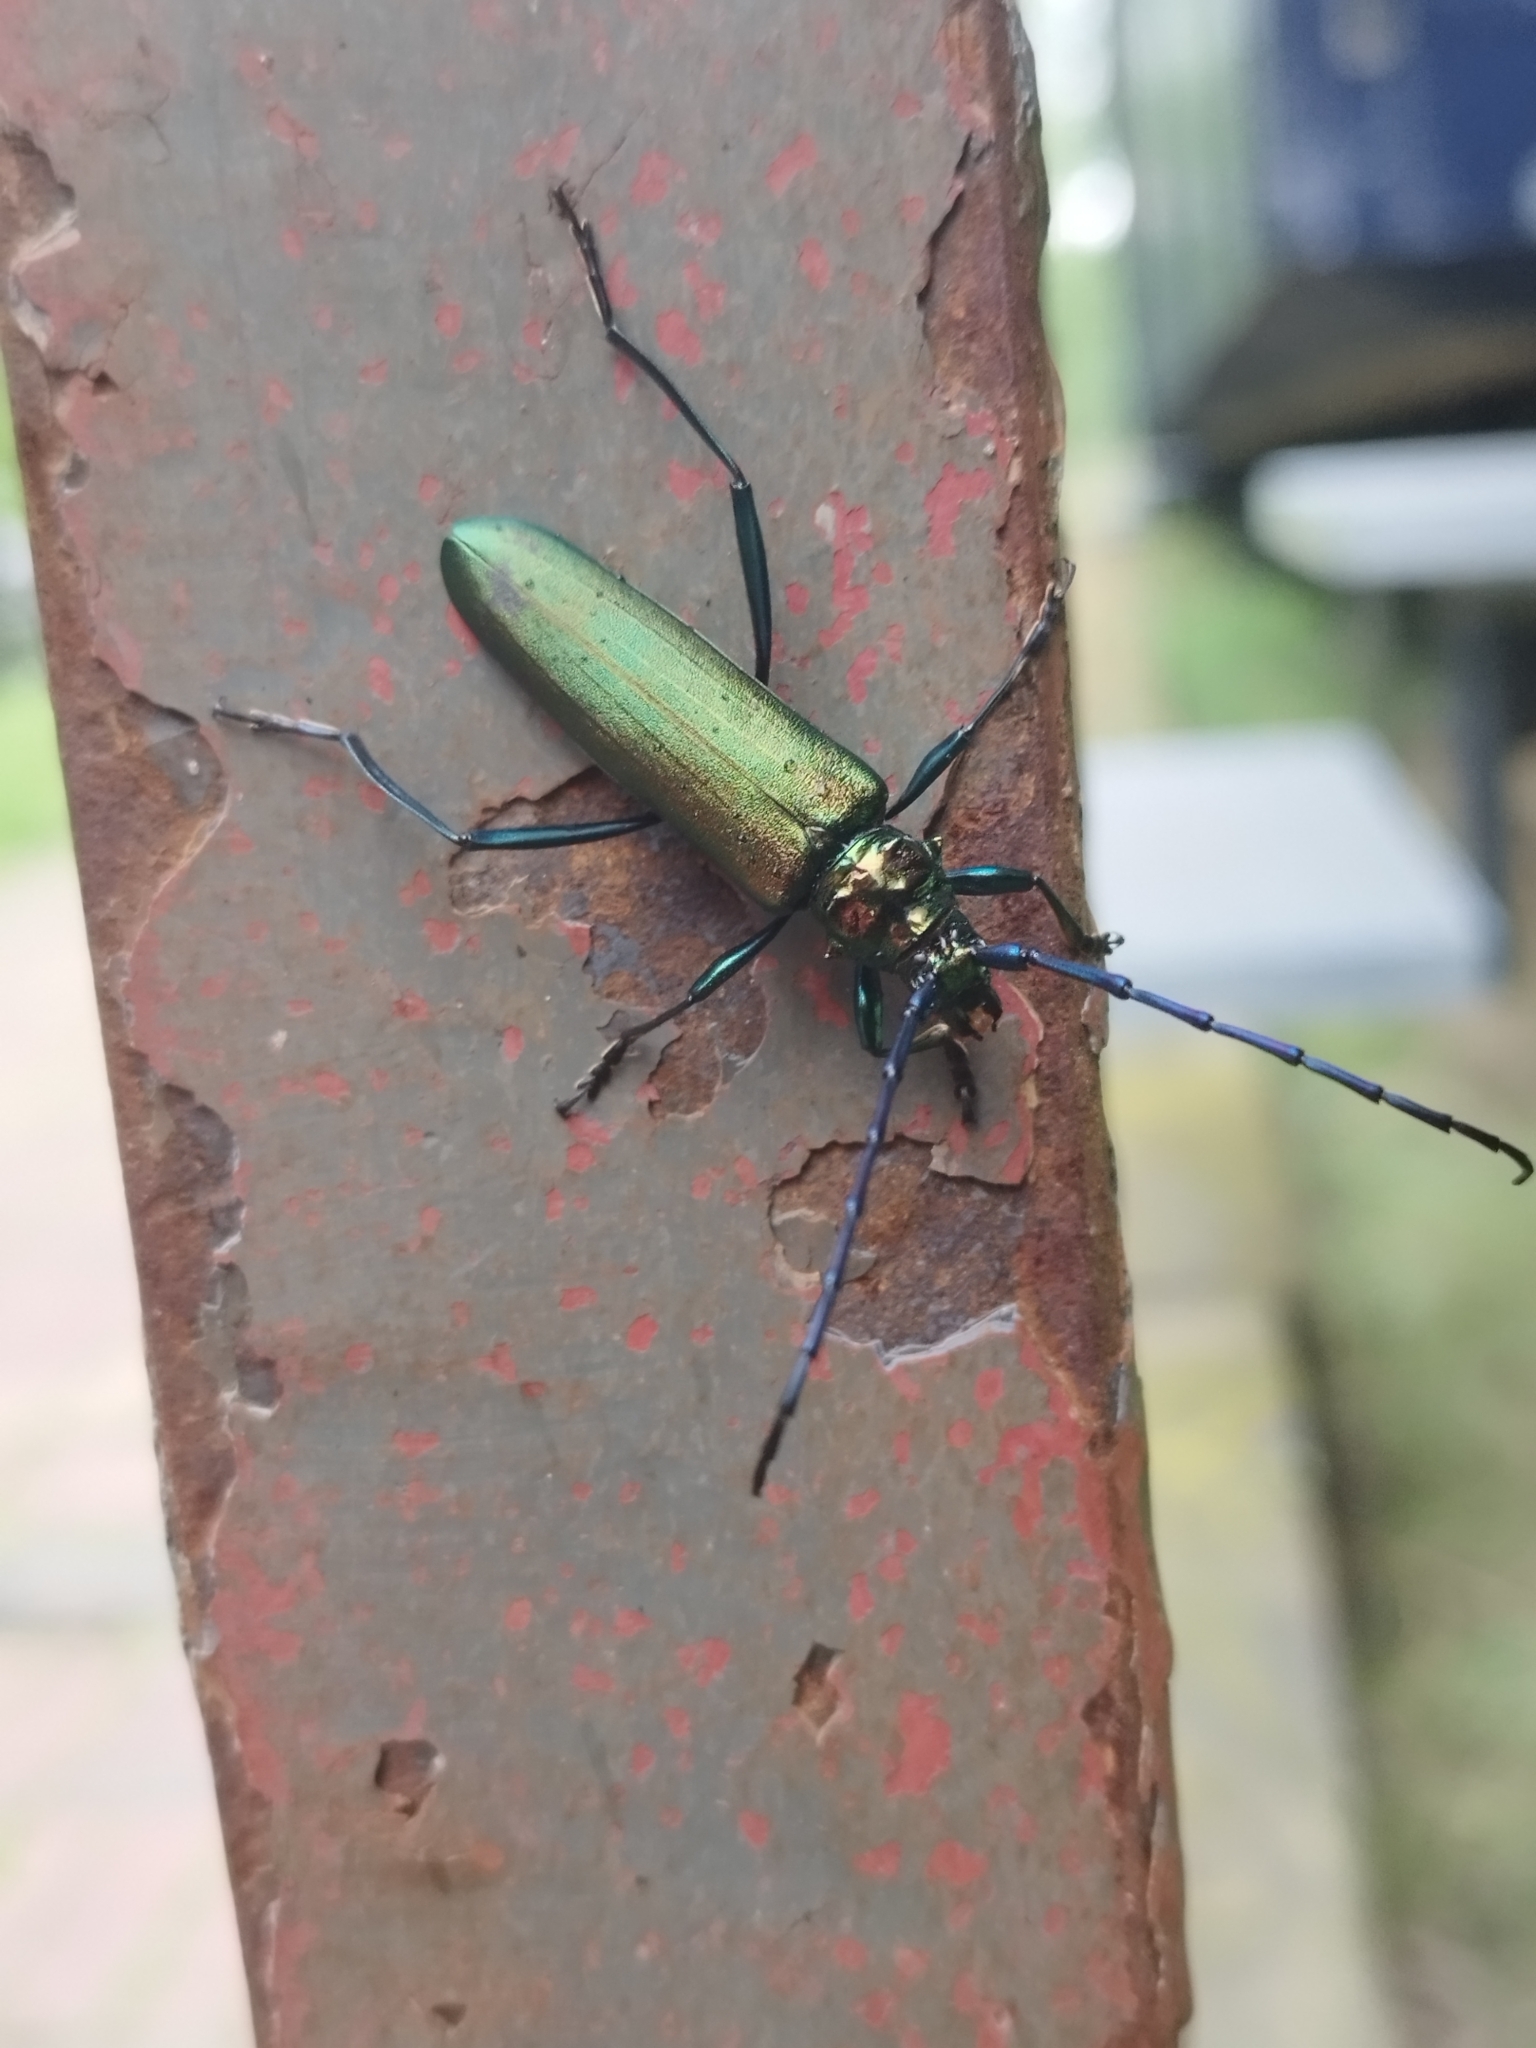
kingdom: Animalia
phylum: Arthropoda
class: Insecta
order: Coleoptera
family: Cerambycidae
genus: Aromia
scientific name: Aromia moschata
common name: Musk beetle
